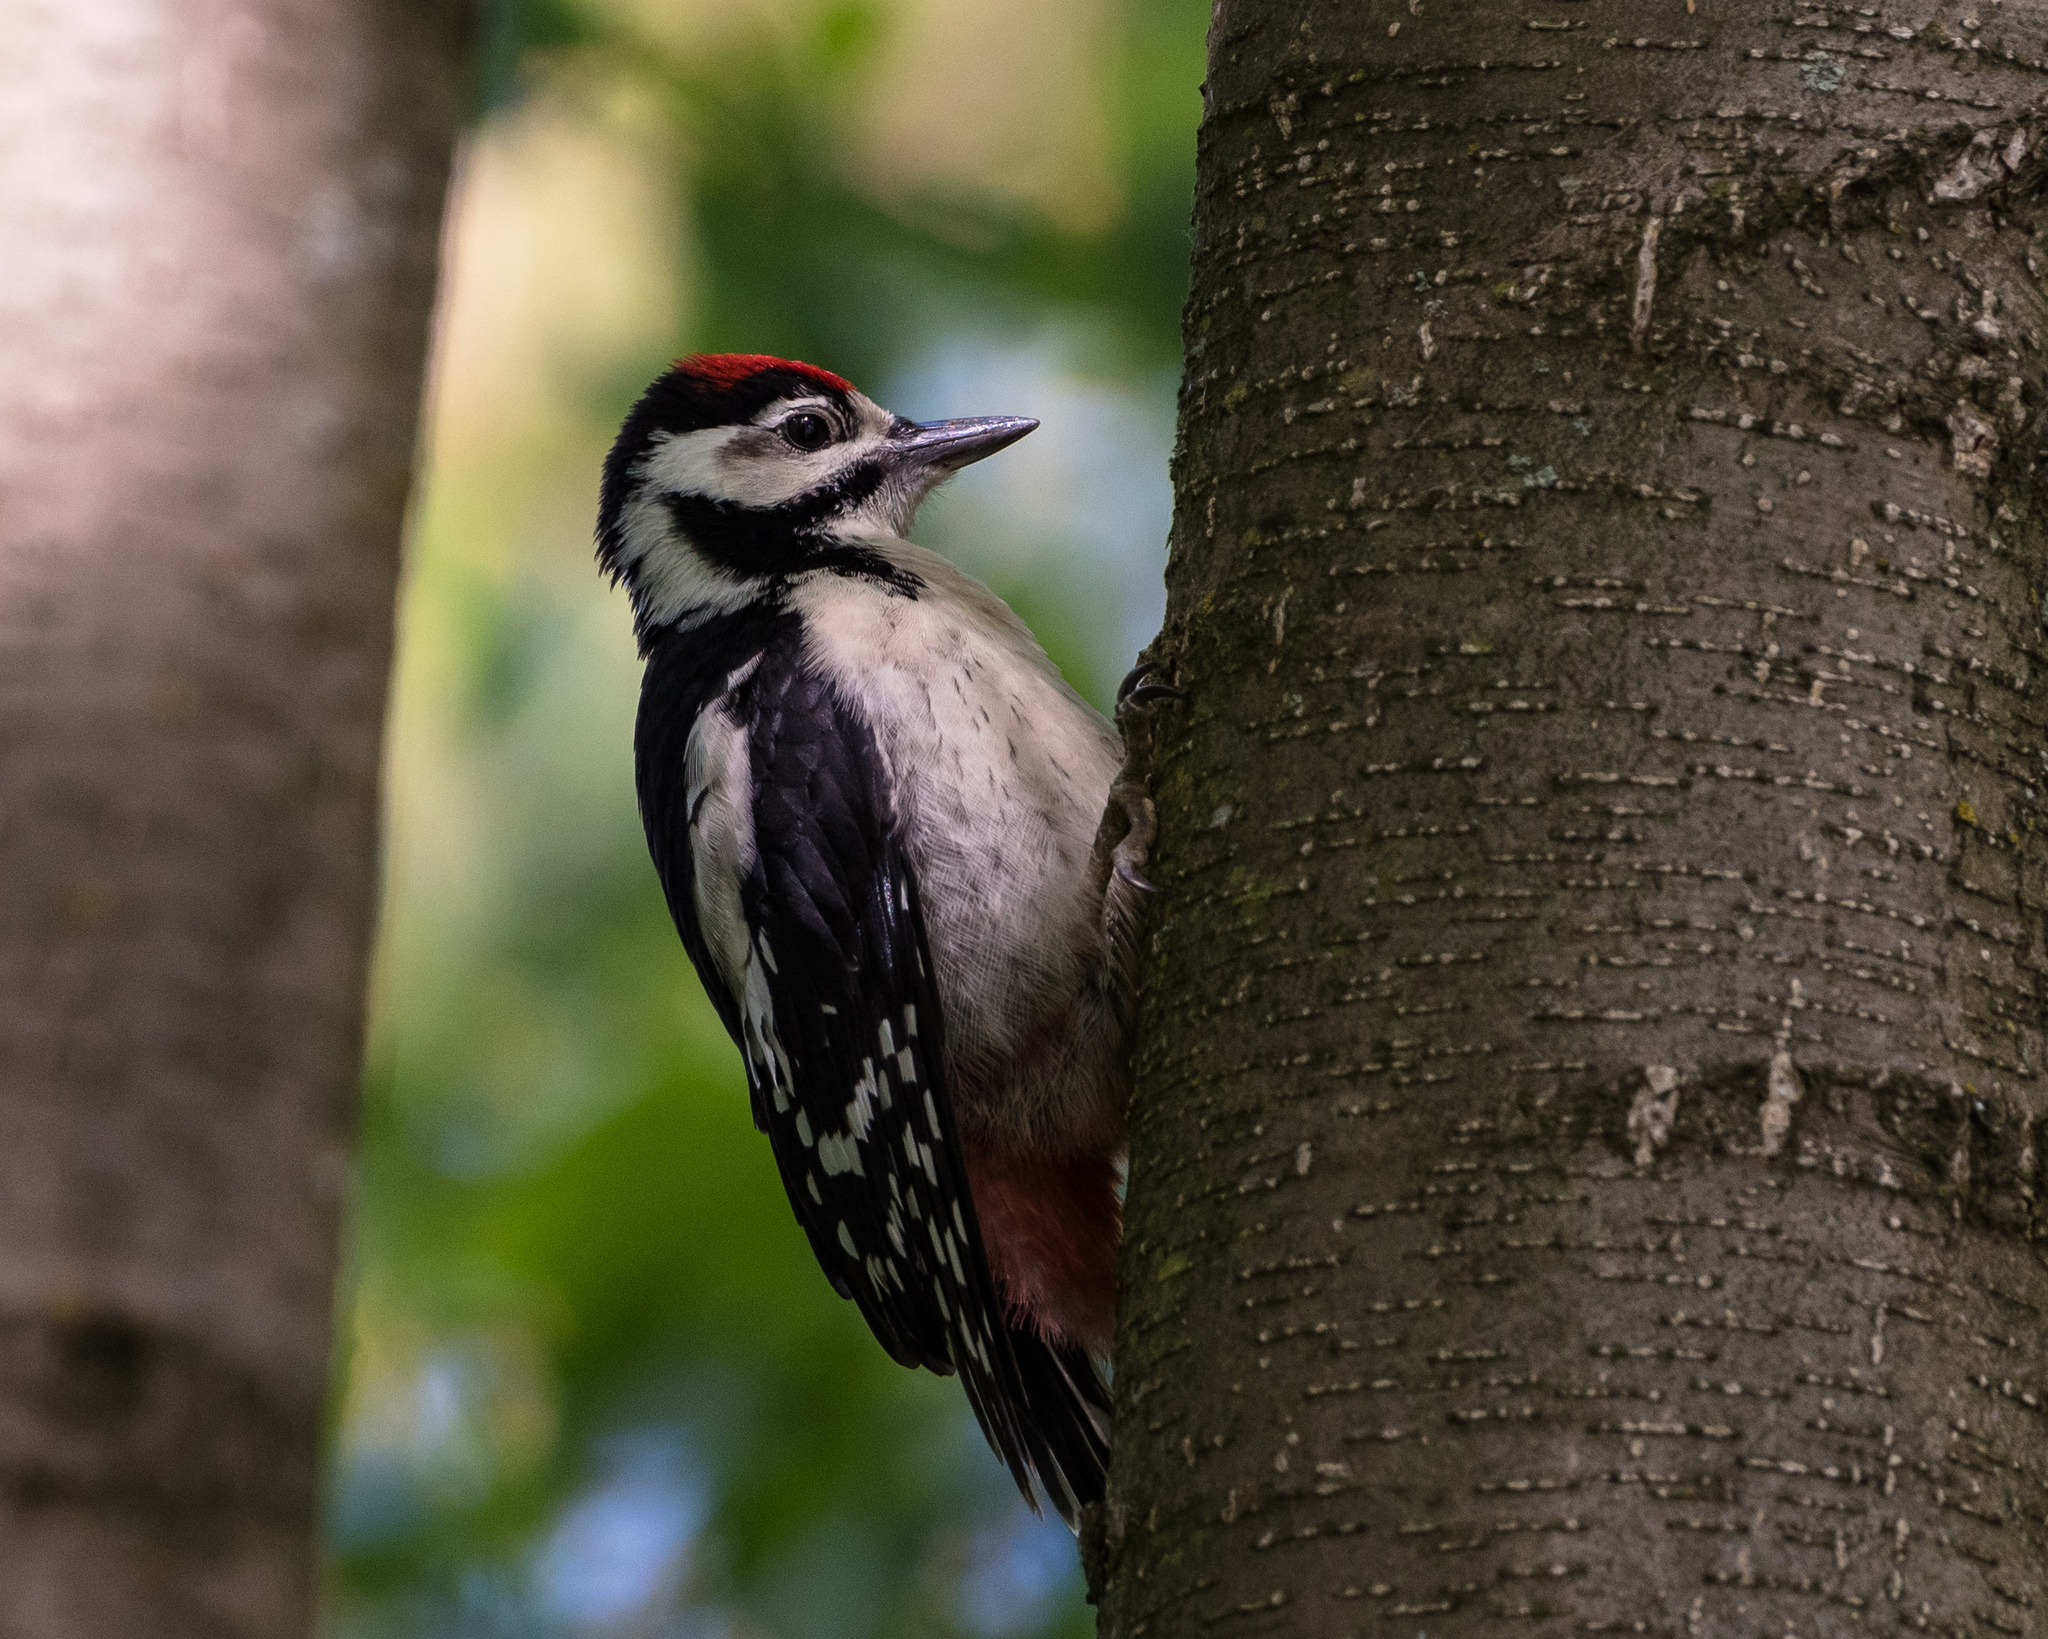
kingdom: Animalia
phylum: Chordata
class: Aves
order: Piciformes
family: Picidae
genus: Dendrocopos
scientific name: Dendrocopos major
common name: Great spotted woodpecker
